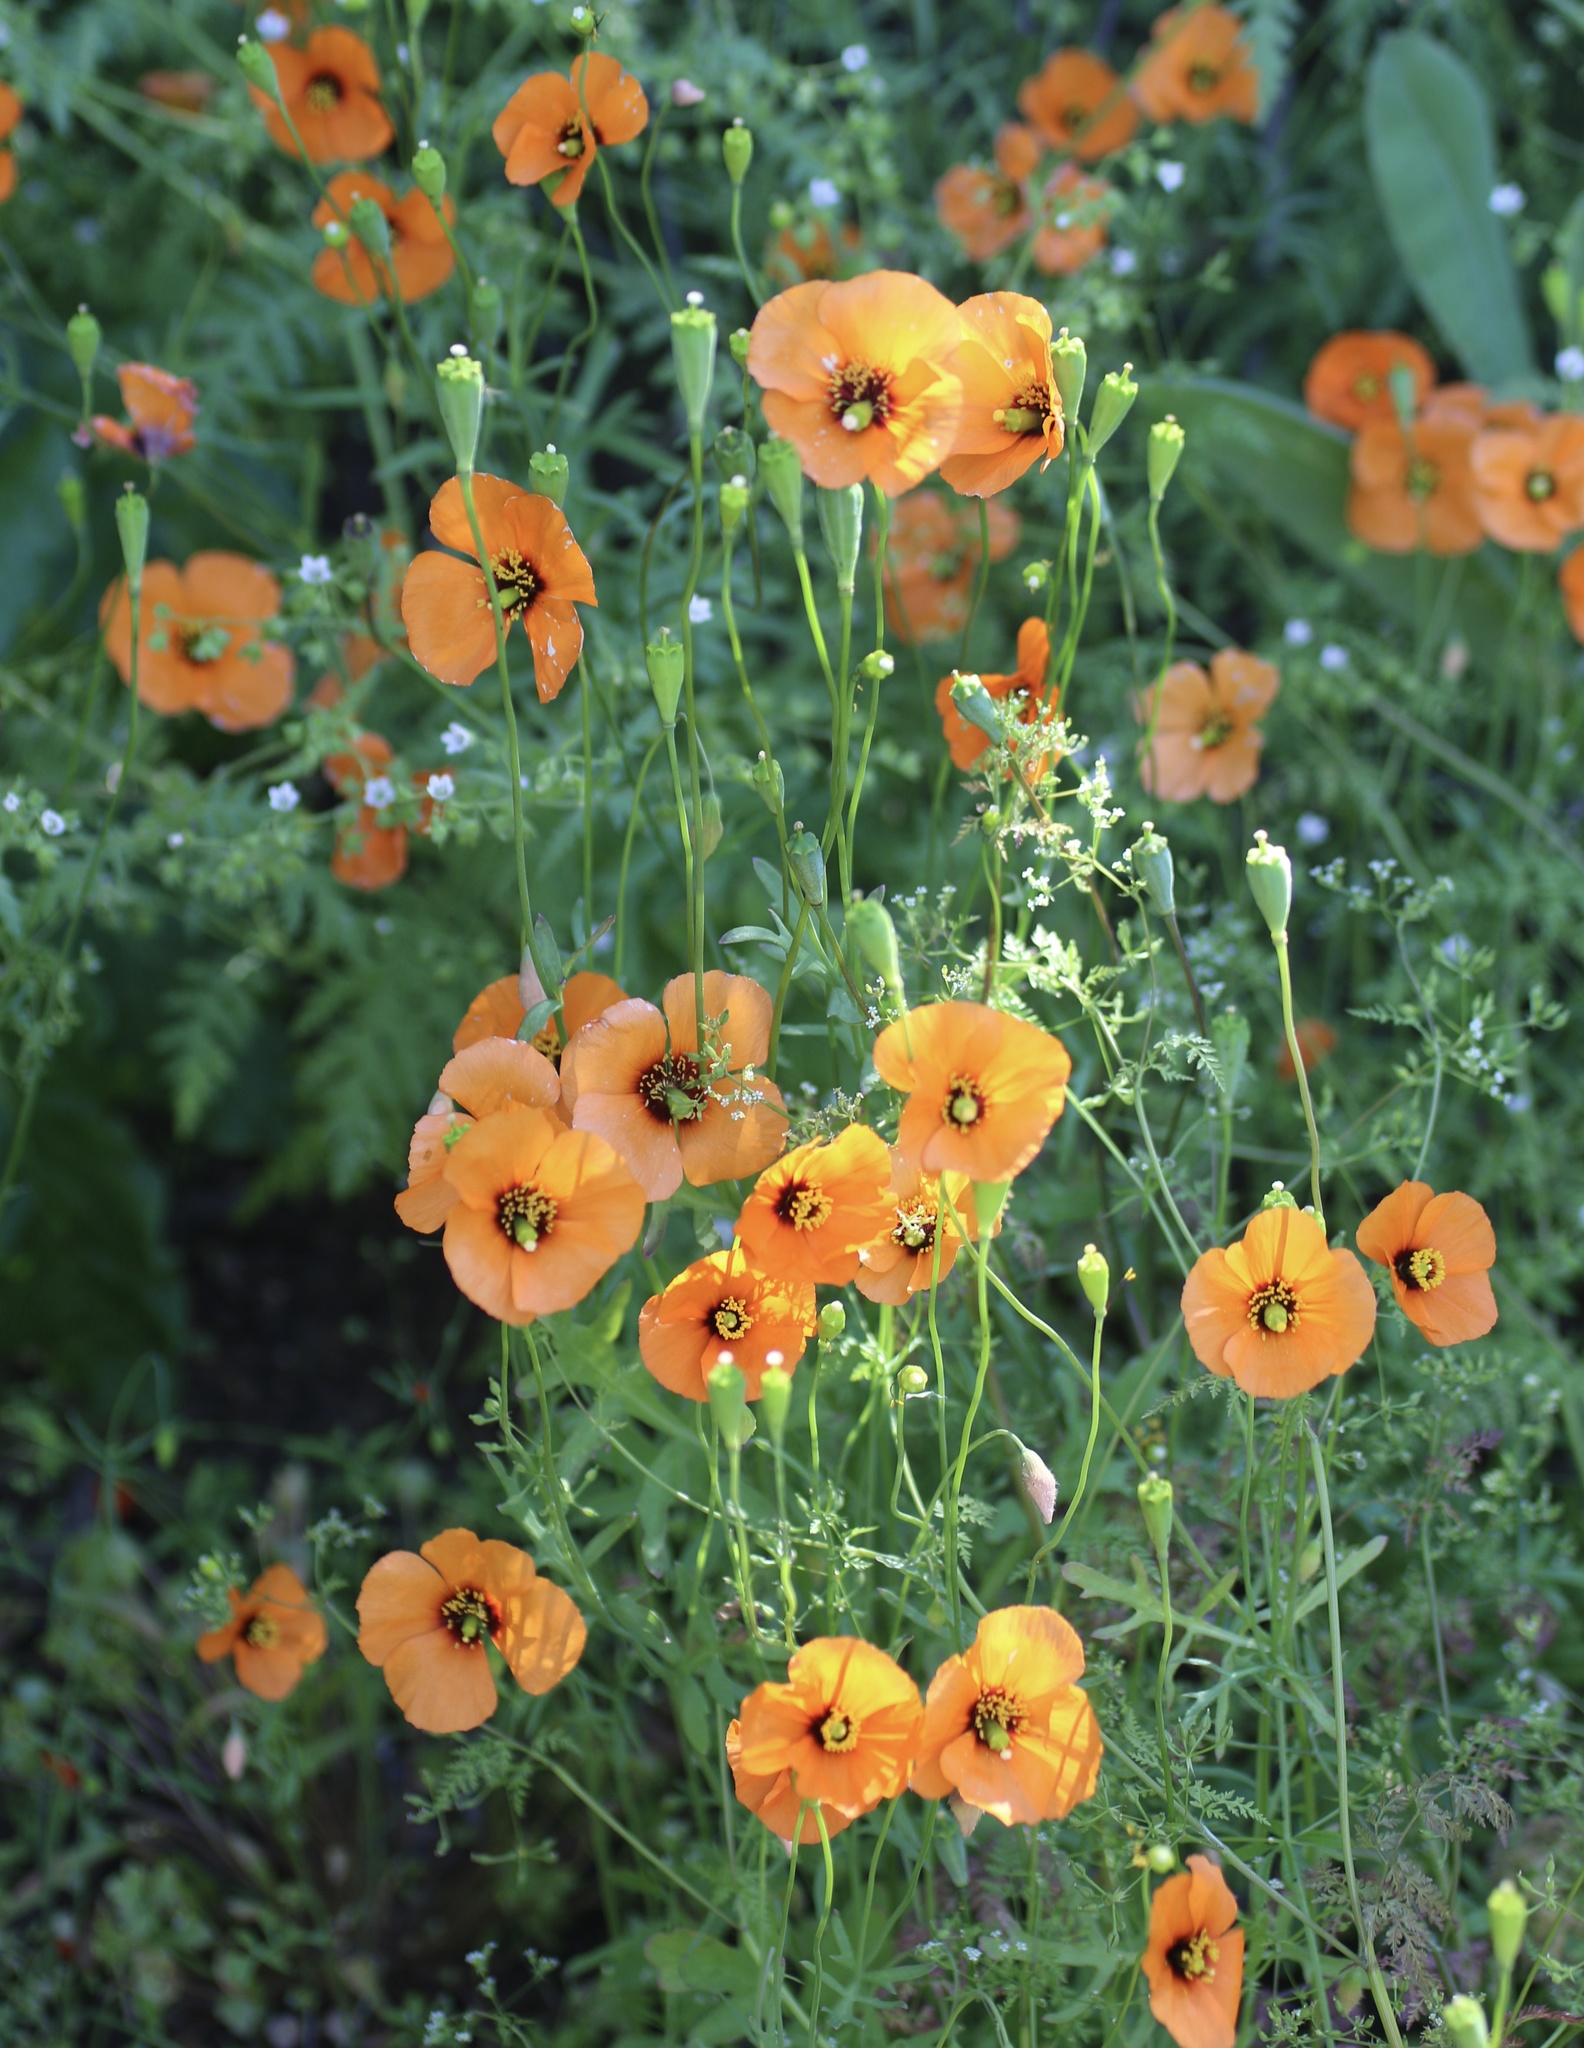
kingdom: Plantae
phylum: Tracheophyta
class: Magnoliopsida
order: Ranunculales
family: Papaveraceae
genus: Stylomecon
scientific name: Stylomecon heterophylla
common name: Flaming-poppy
